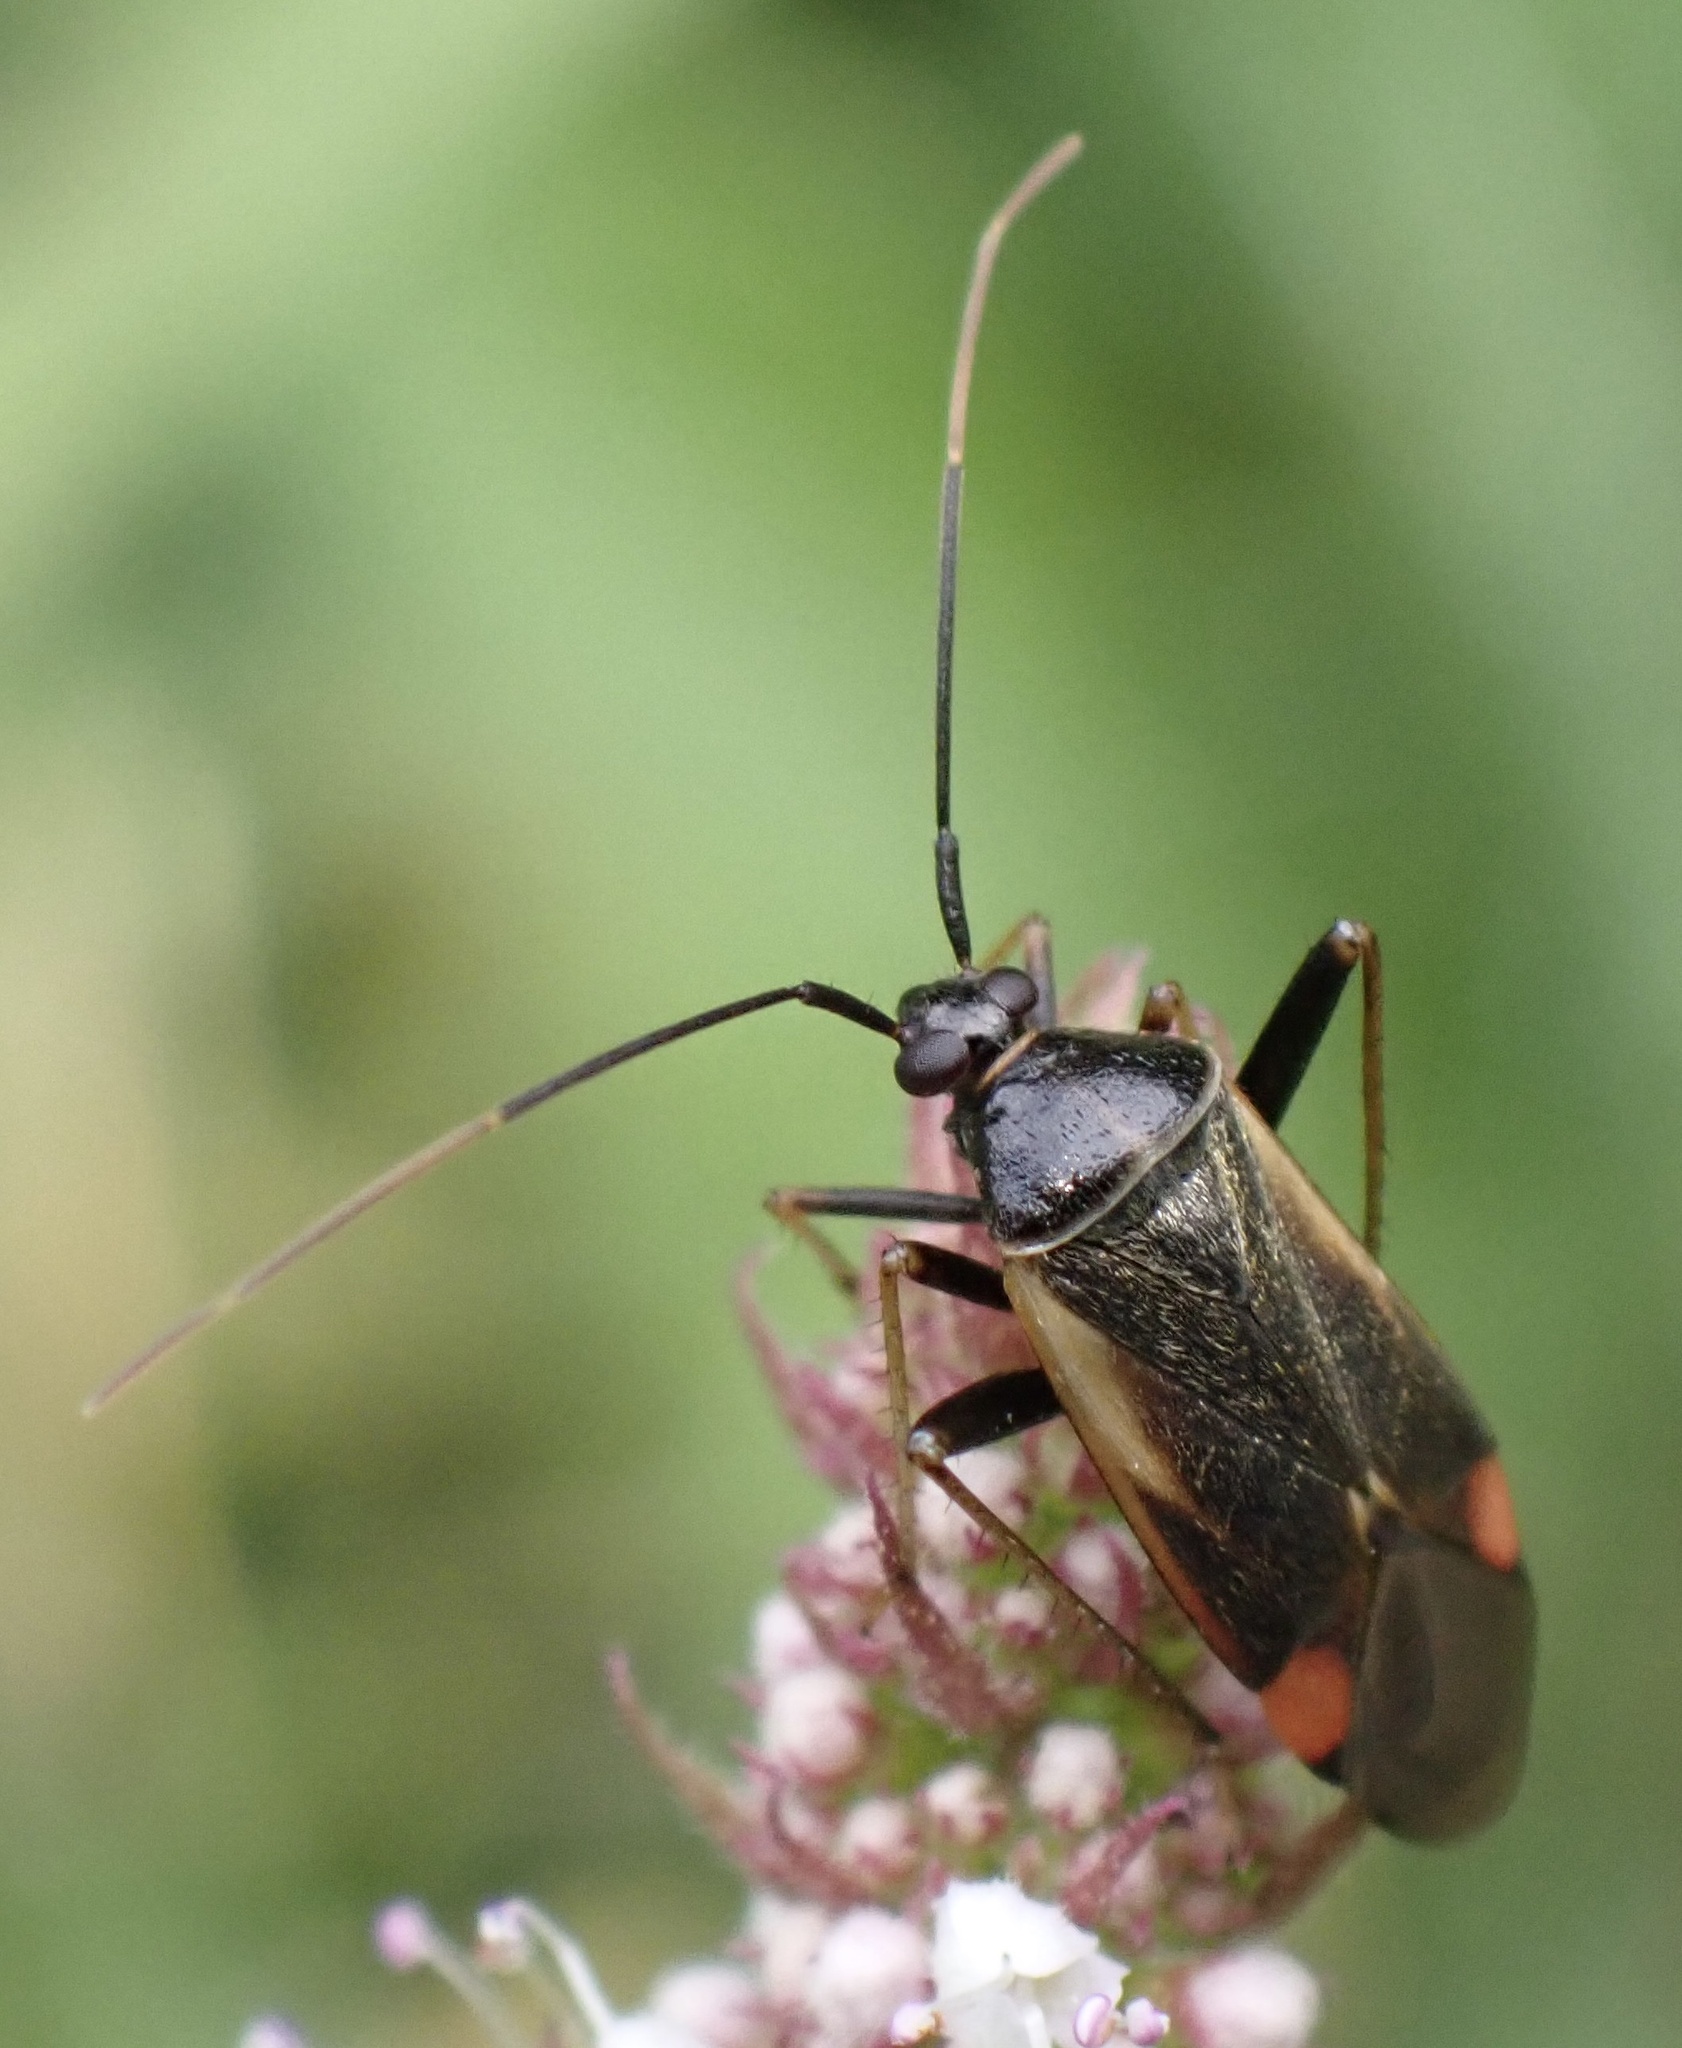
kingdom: Animalia
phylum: Arthropoda
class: Insecta
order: Hemiptera
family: Miridae
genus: Adelphocoris
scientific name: Adelphocoris seticornis
